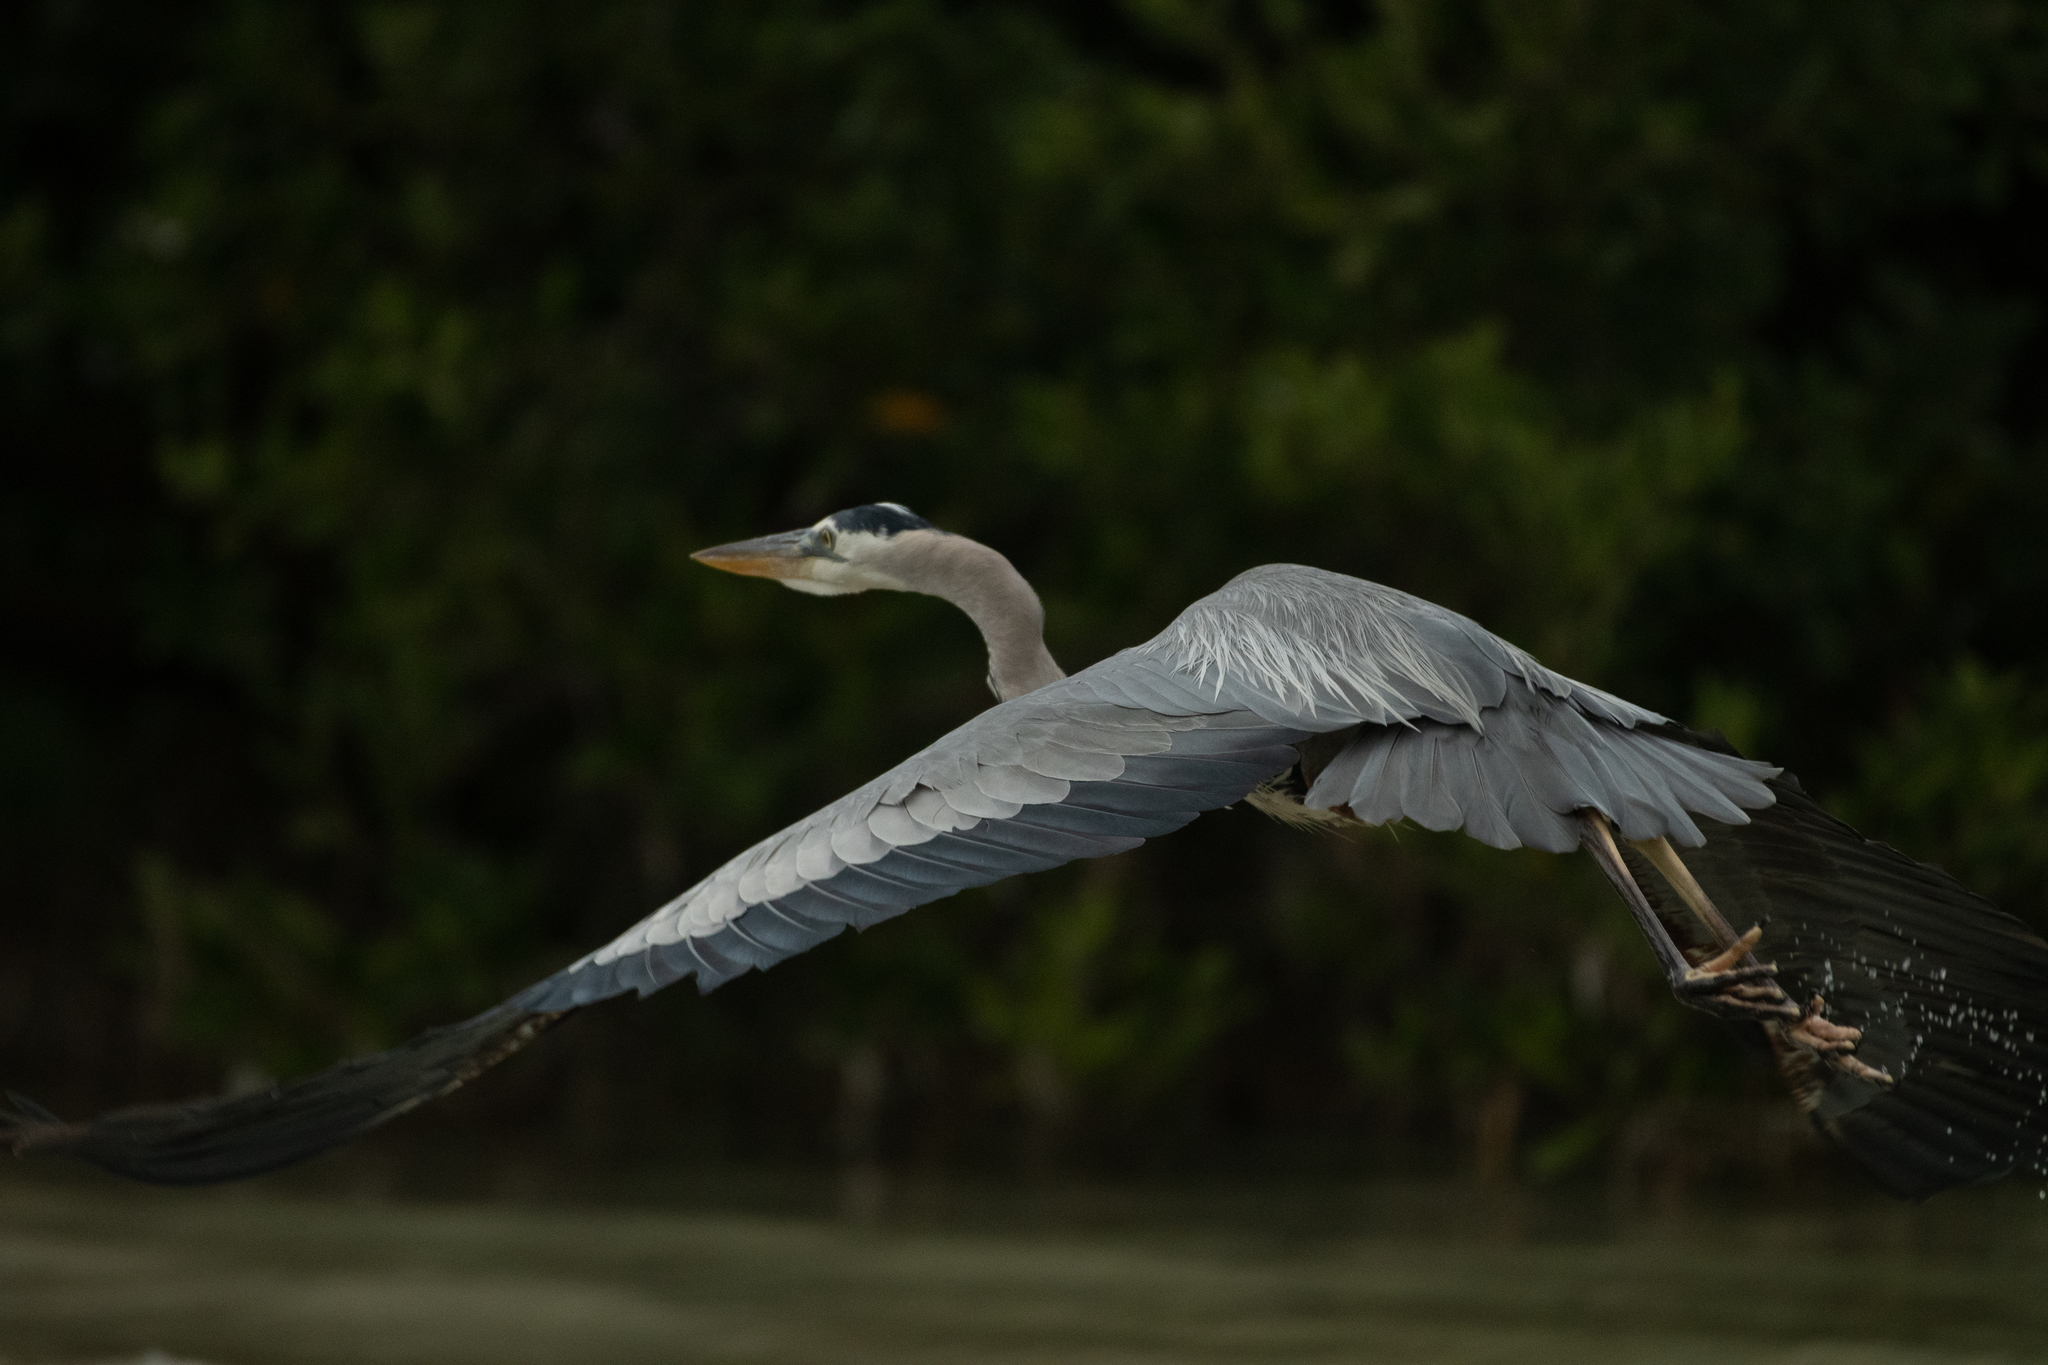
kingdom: Animalia
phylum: Chordata
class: Aves
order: Pelecaniformes
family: Ardeidae
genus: Ardea
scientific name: Ardea herodias
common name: Great blue heron
